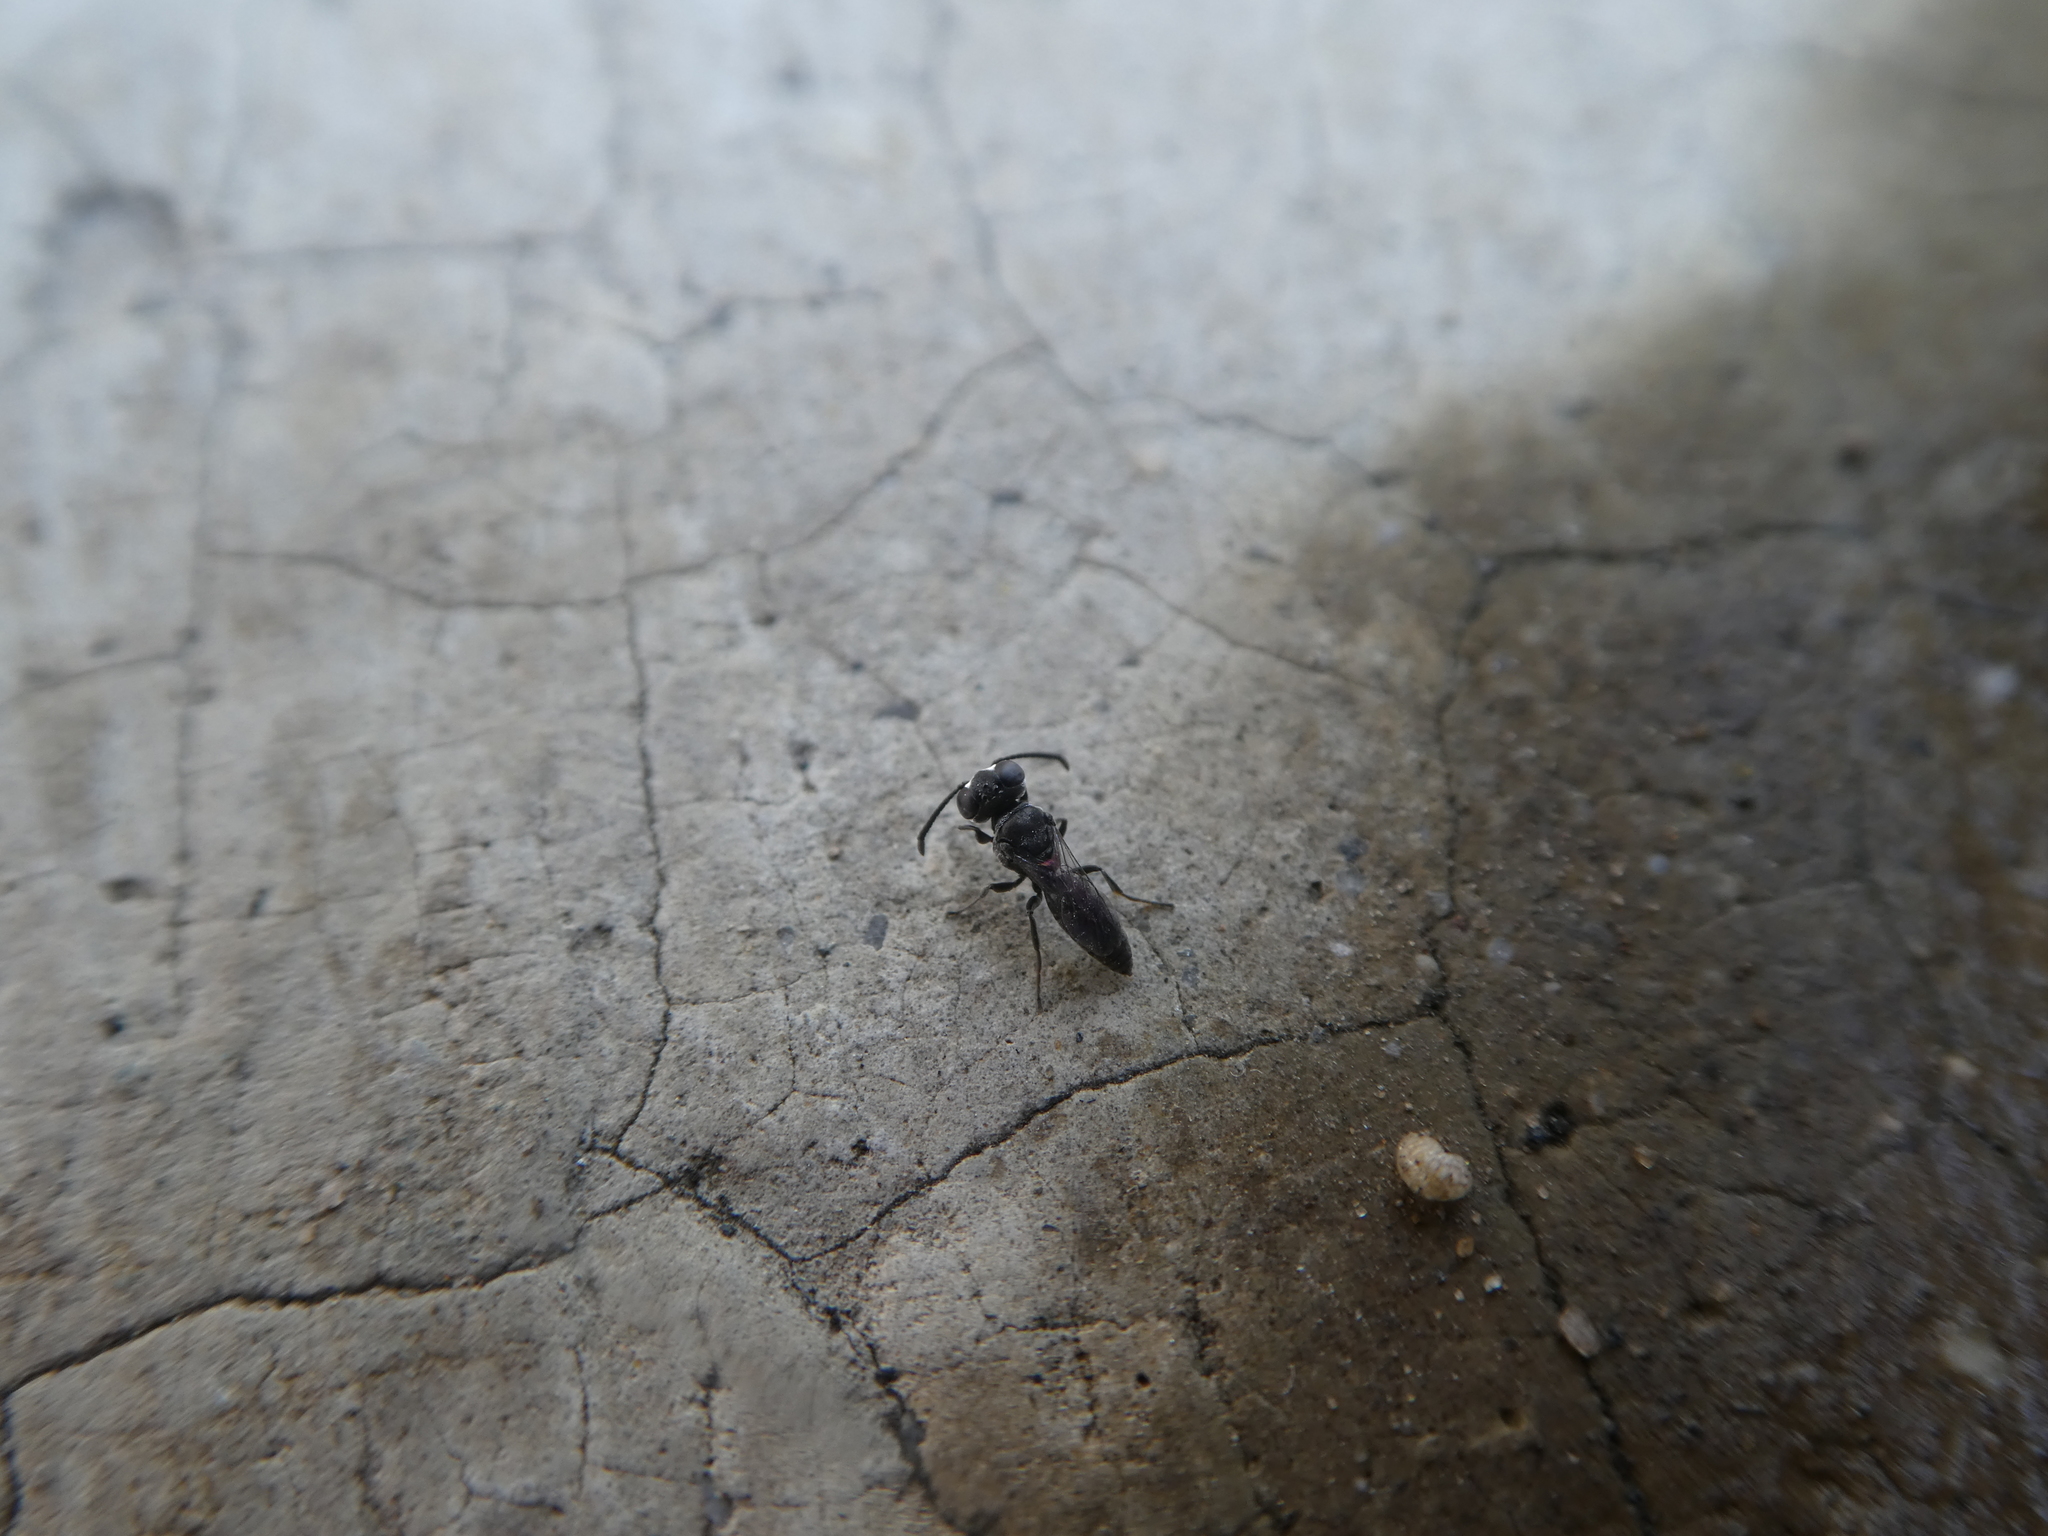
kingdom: Animalia
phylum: Arthropoda
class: Insecta
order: Hymenoptera
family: Crabronidae
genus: Solierella
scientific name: Solierella
